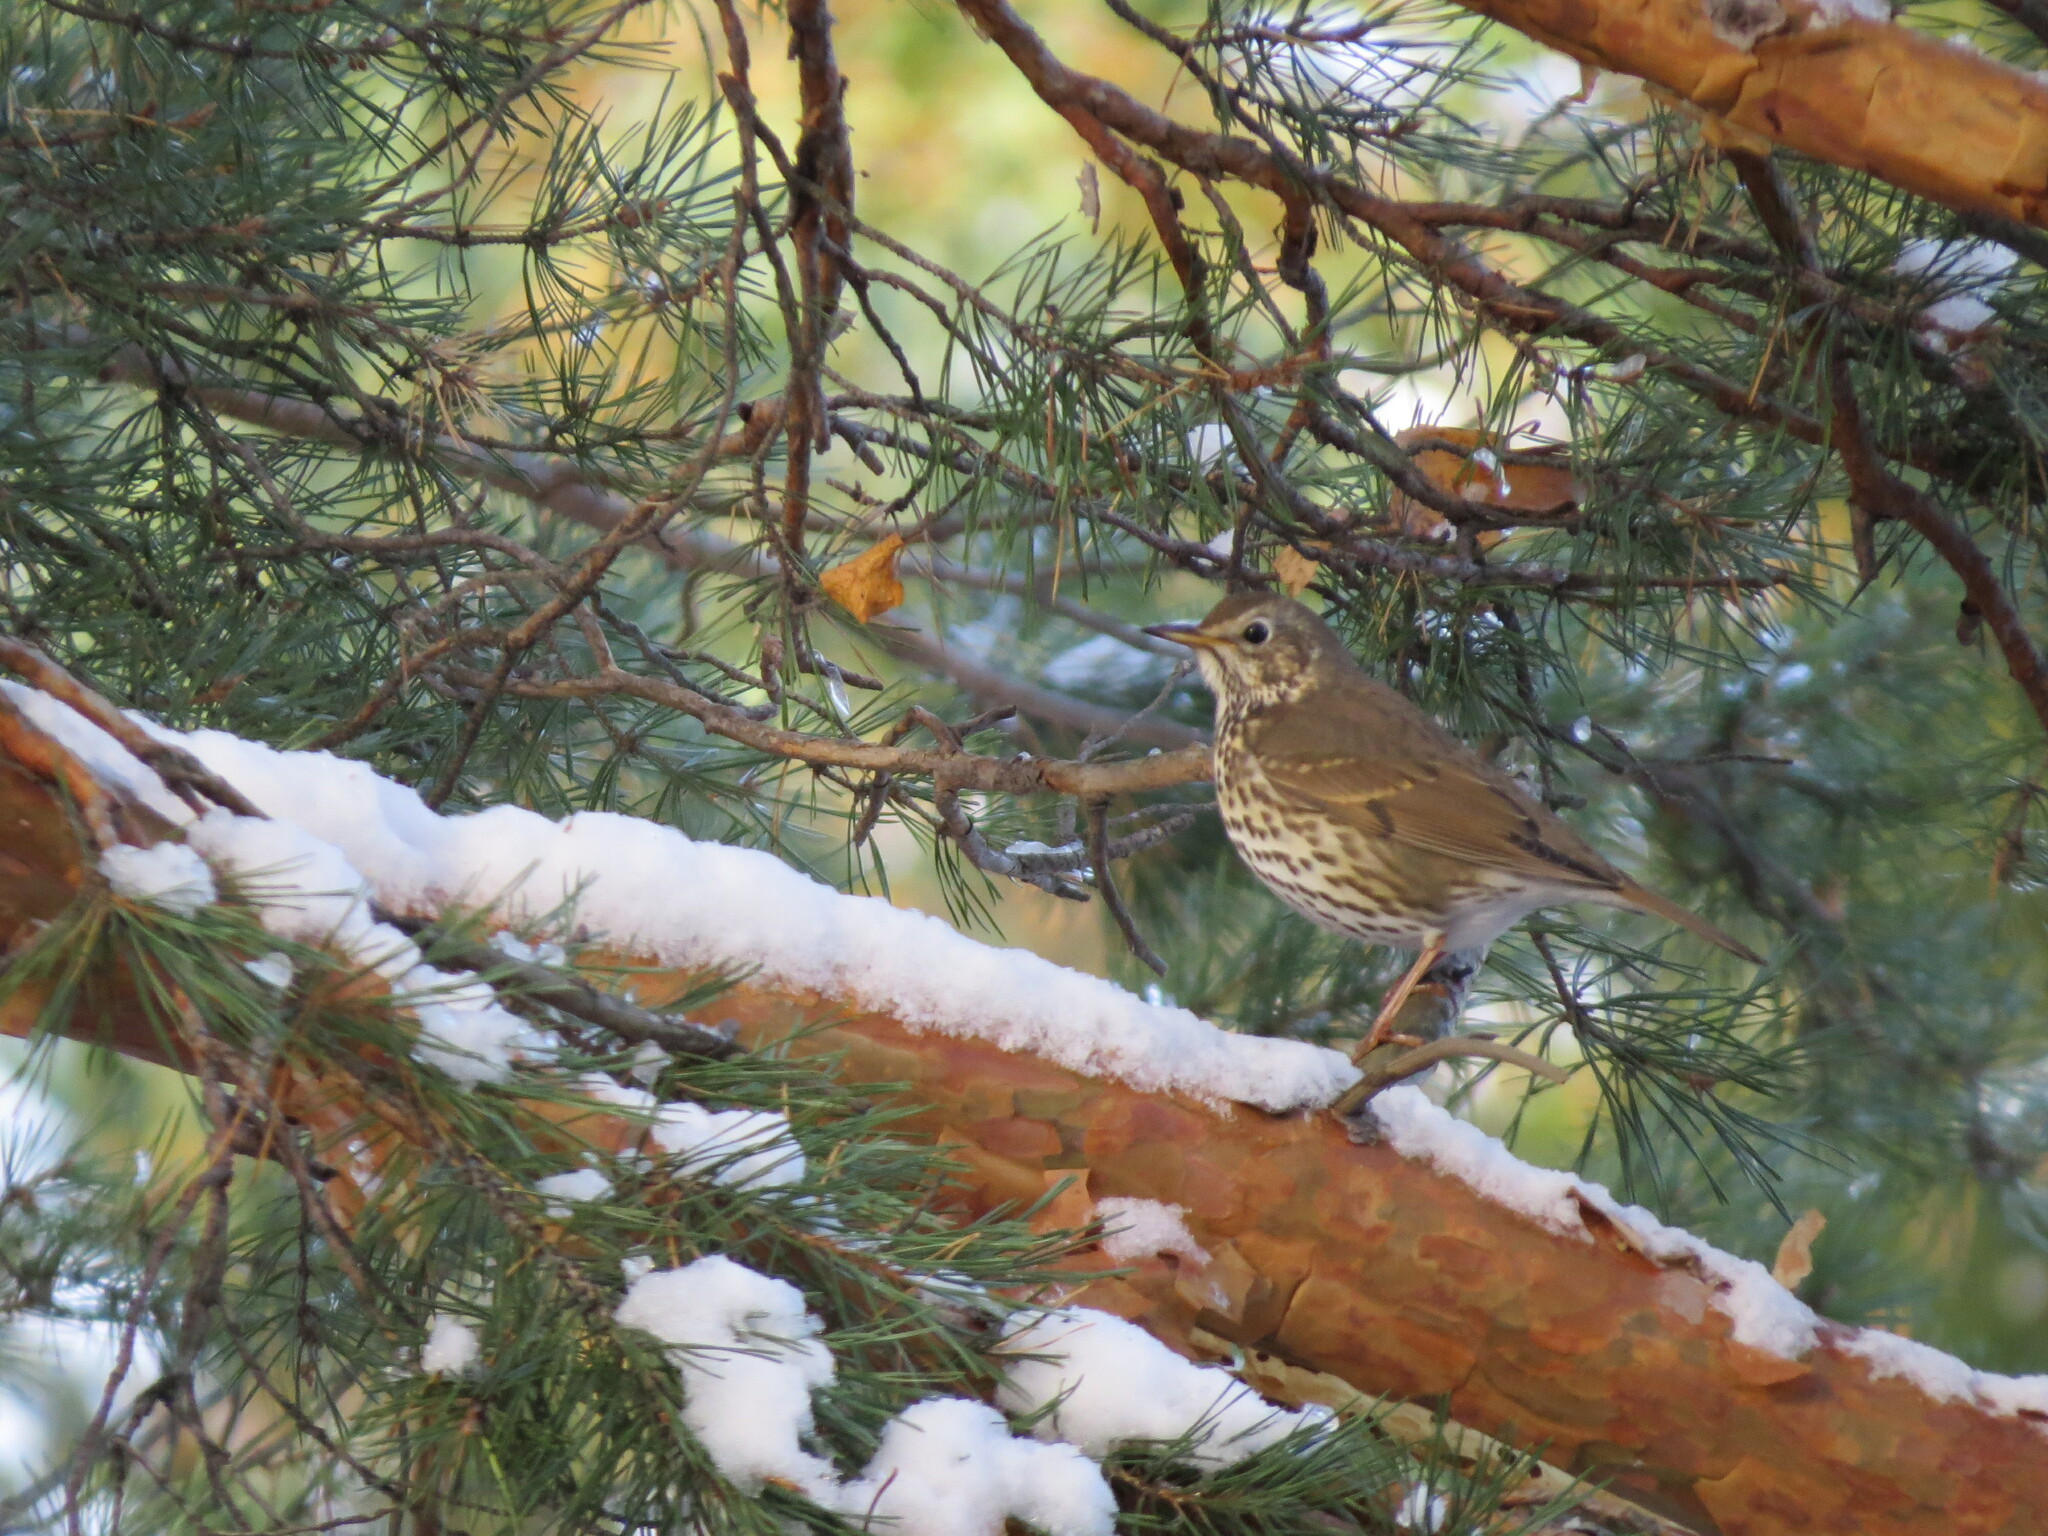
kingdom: Animalia
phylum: Chordata
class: Aves
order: Passeriformes
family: Turdidae
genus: Turdus
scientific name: Turdus philomelos
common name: Song thrush
